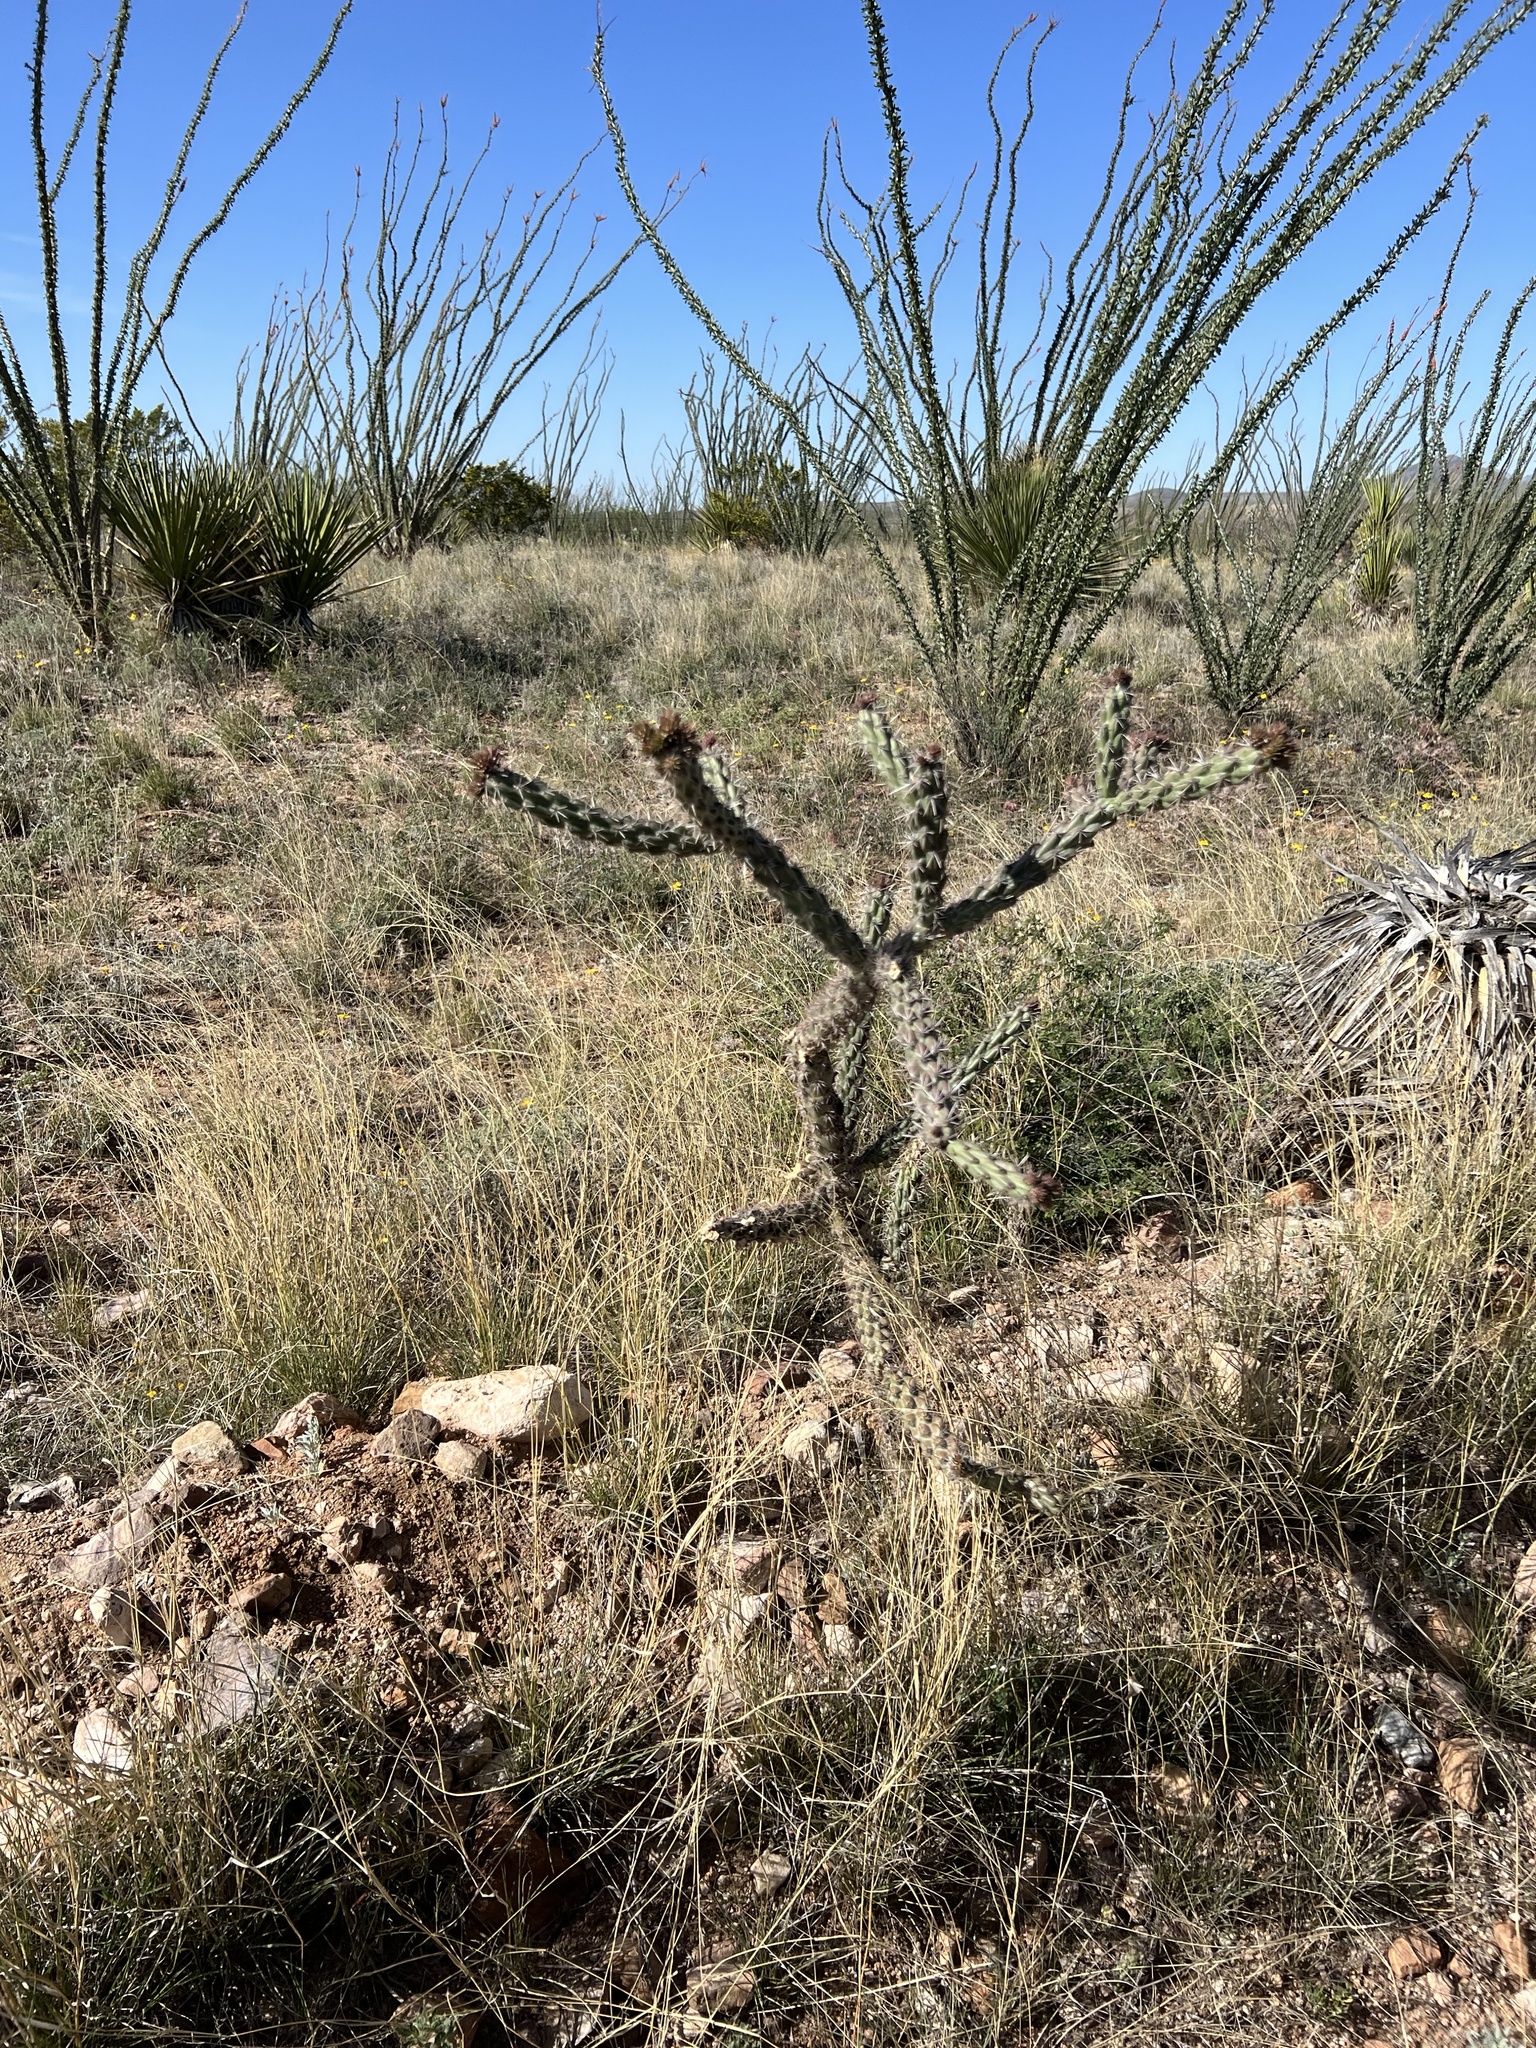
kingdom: Plantae
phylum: Tracheophyta
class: Magnoliopsida
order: Caryophyllales
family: Cactaceae
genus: Cylindropuntia
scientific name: Cylindropuntia imbricata
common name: Candelabrum cactus
